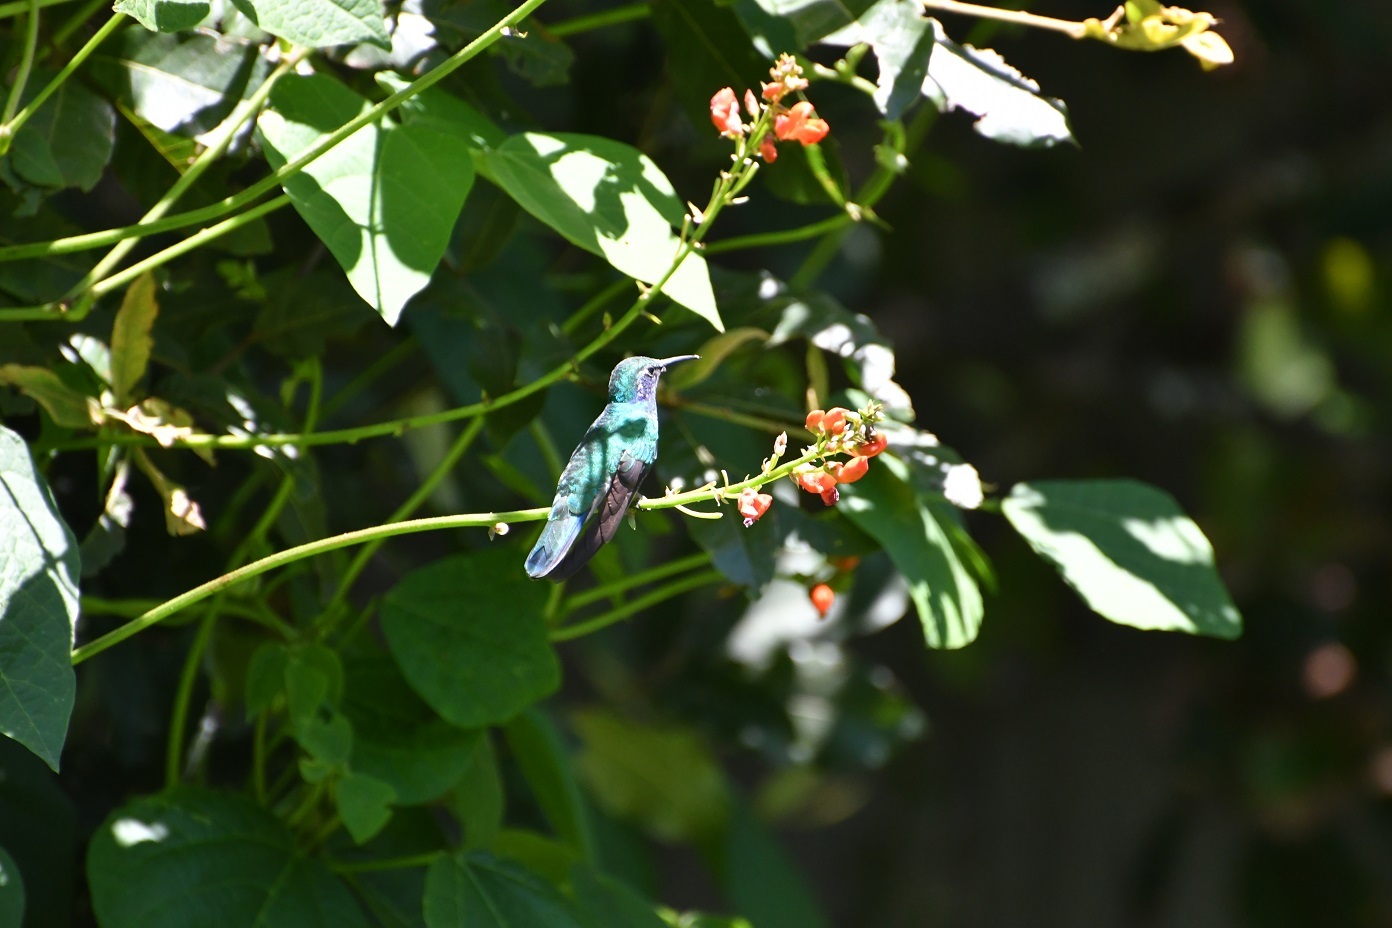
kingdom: Animalia
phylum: Chordata
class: Aves
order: Apodiformes
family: Trochilidae
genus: Colibri
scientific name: Colibri thalassinus
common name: Green violetear
